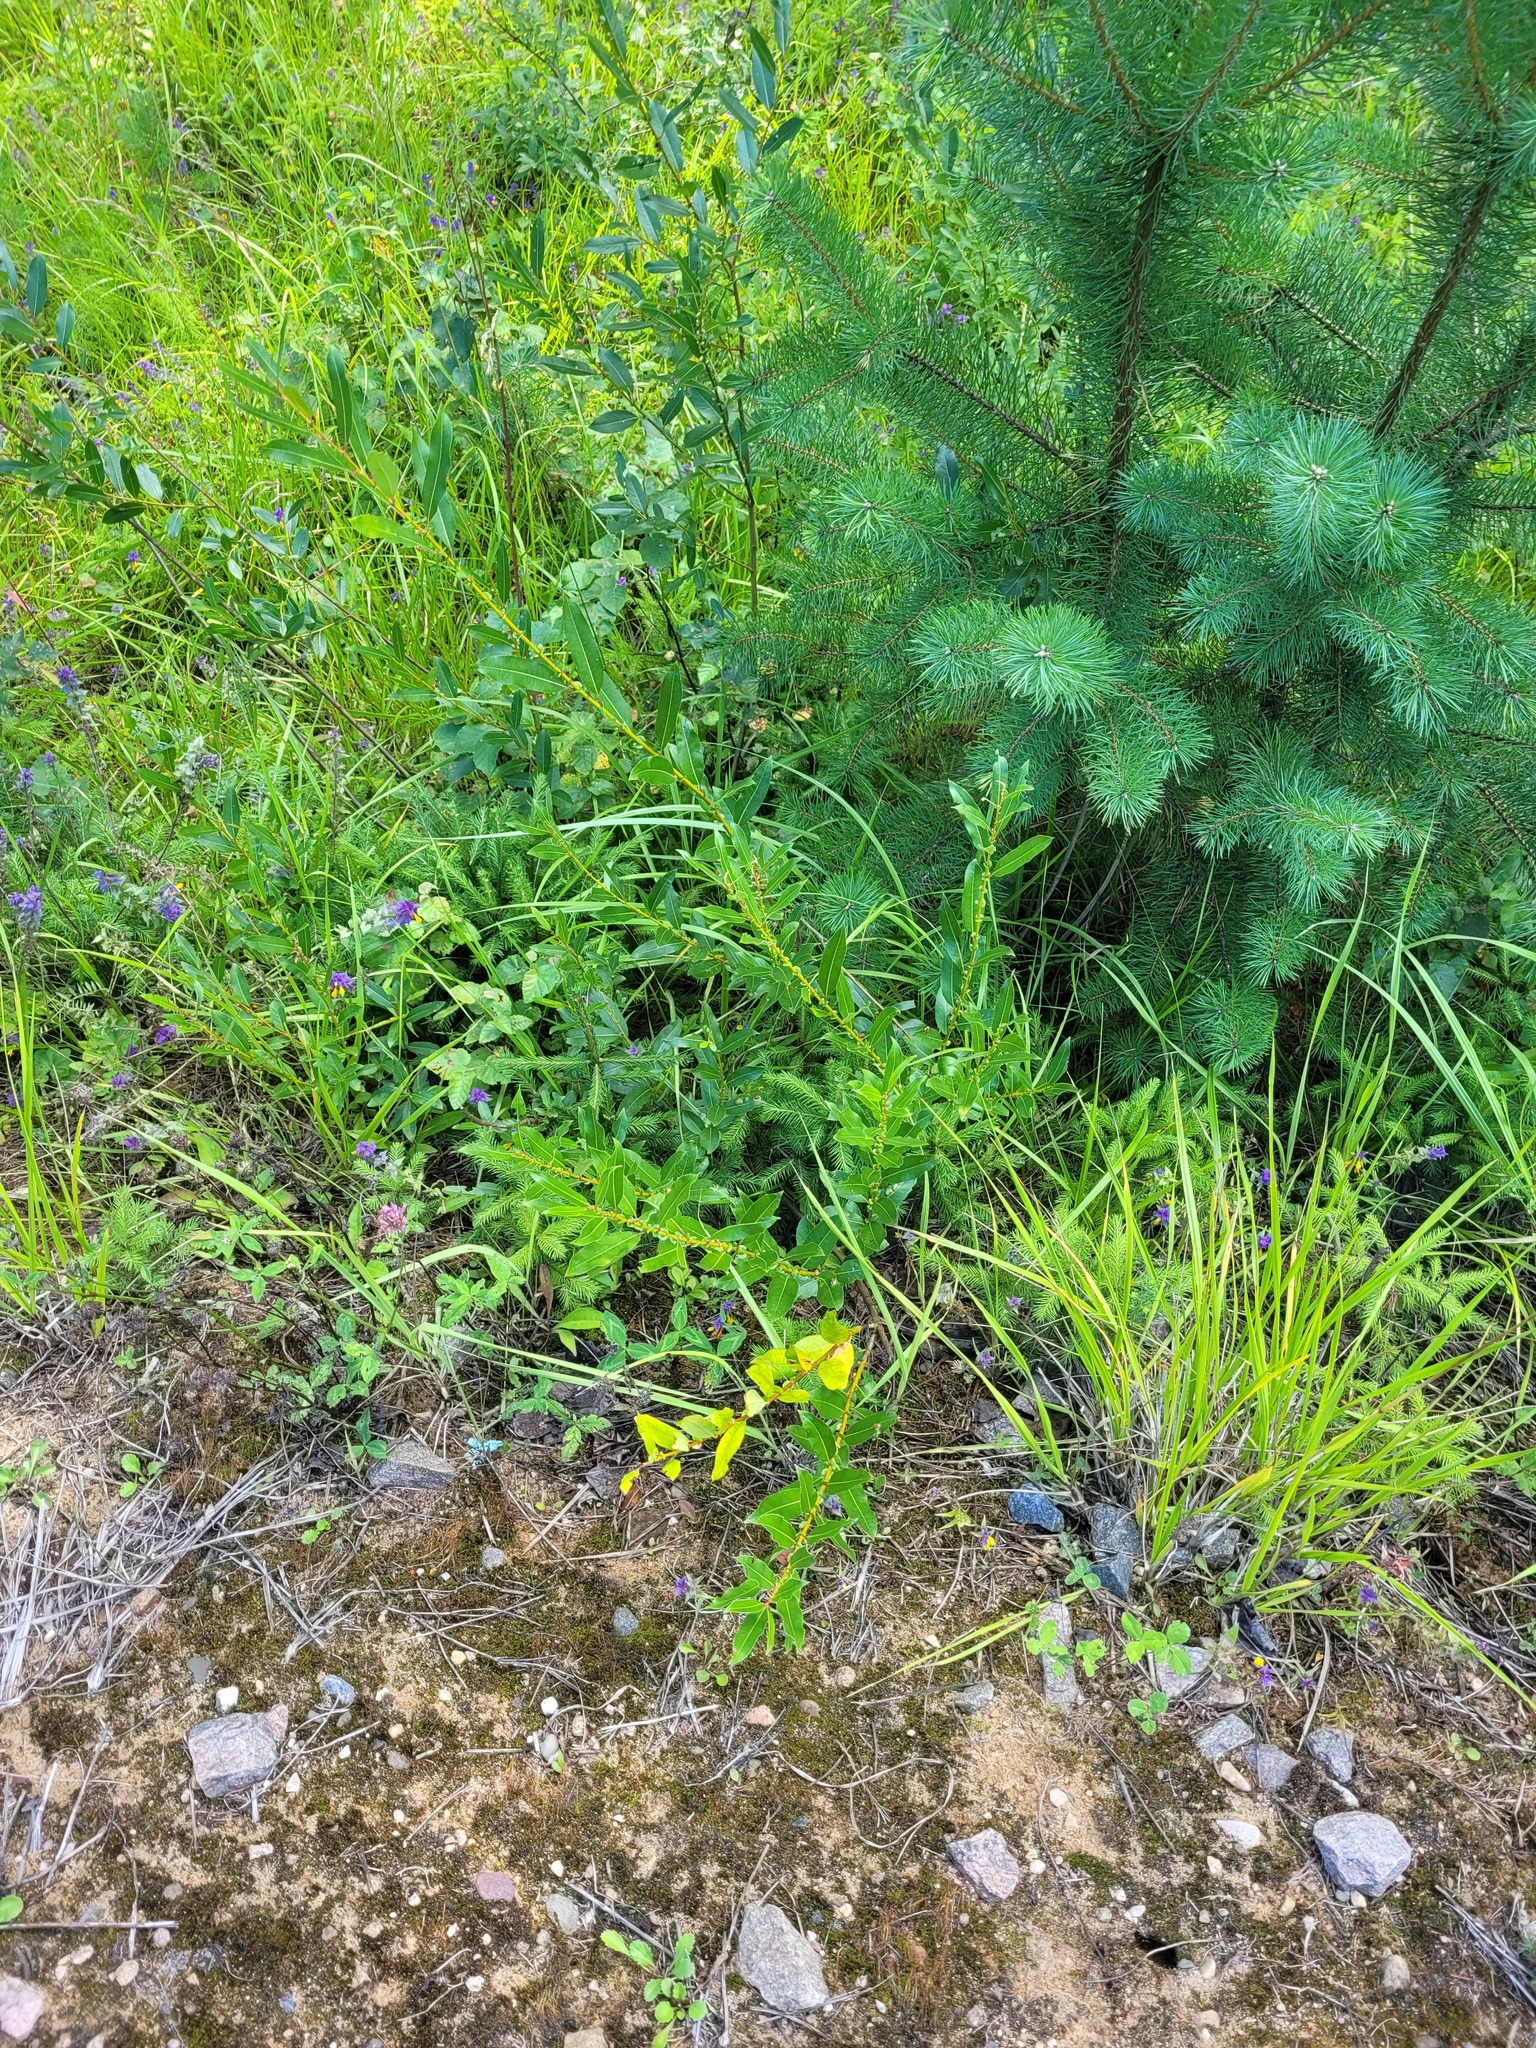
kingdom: Plantae
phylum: Tracheophyta
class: Magnoliopsida
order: Malpighiales
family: Salicaceae
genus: Salix
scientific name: Salix triandra
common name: Almond willow
